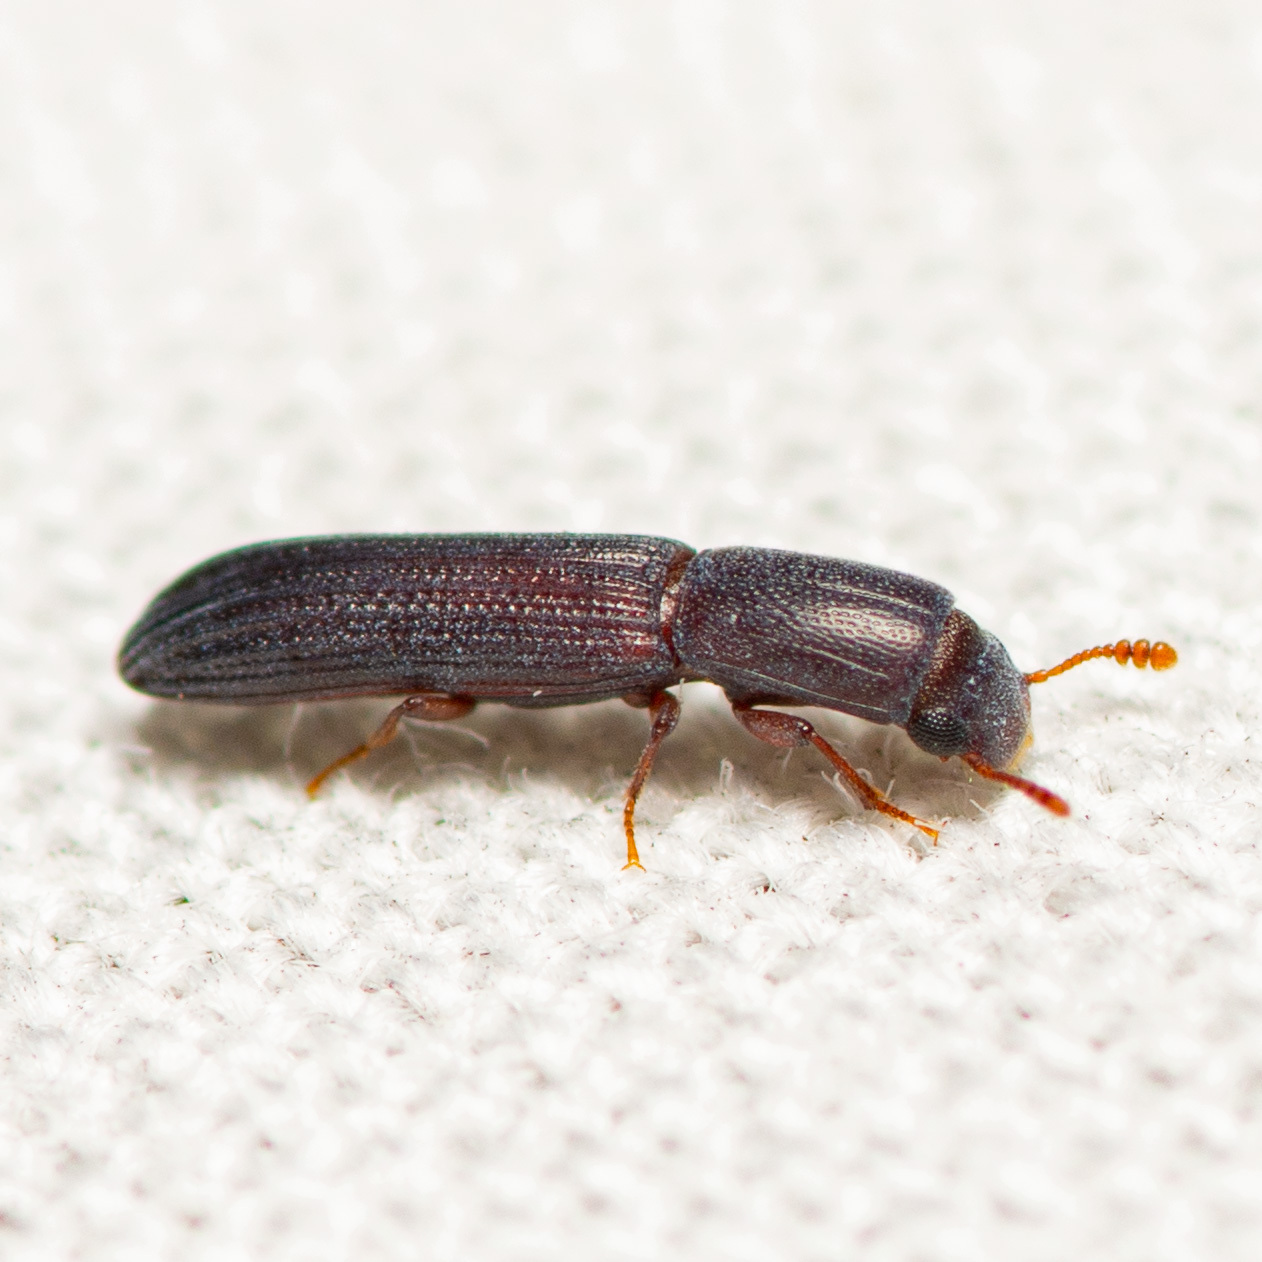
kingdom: Animalia
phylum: Arthropoda
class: Insecta
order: Coleoptera
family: Zopheridae
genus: Colydium
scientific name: Colydium lineola
